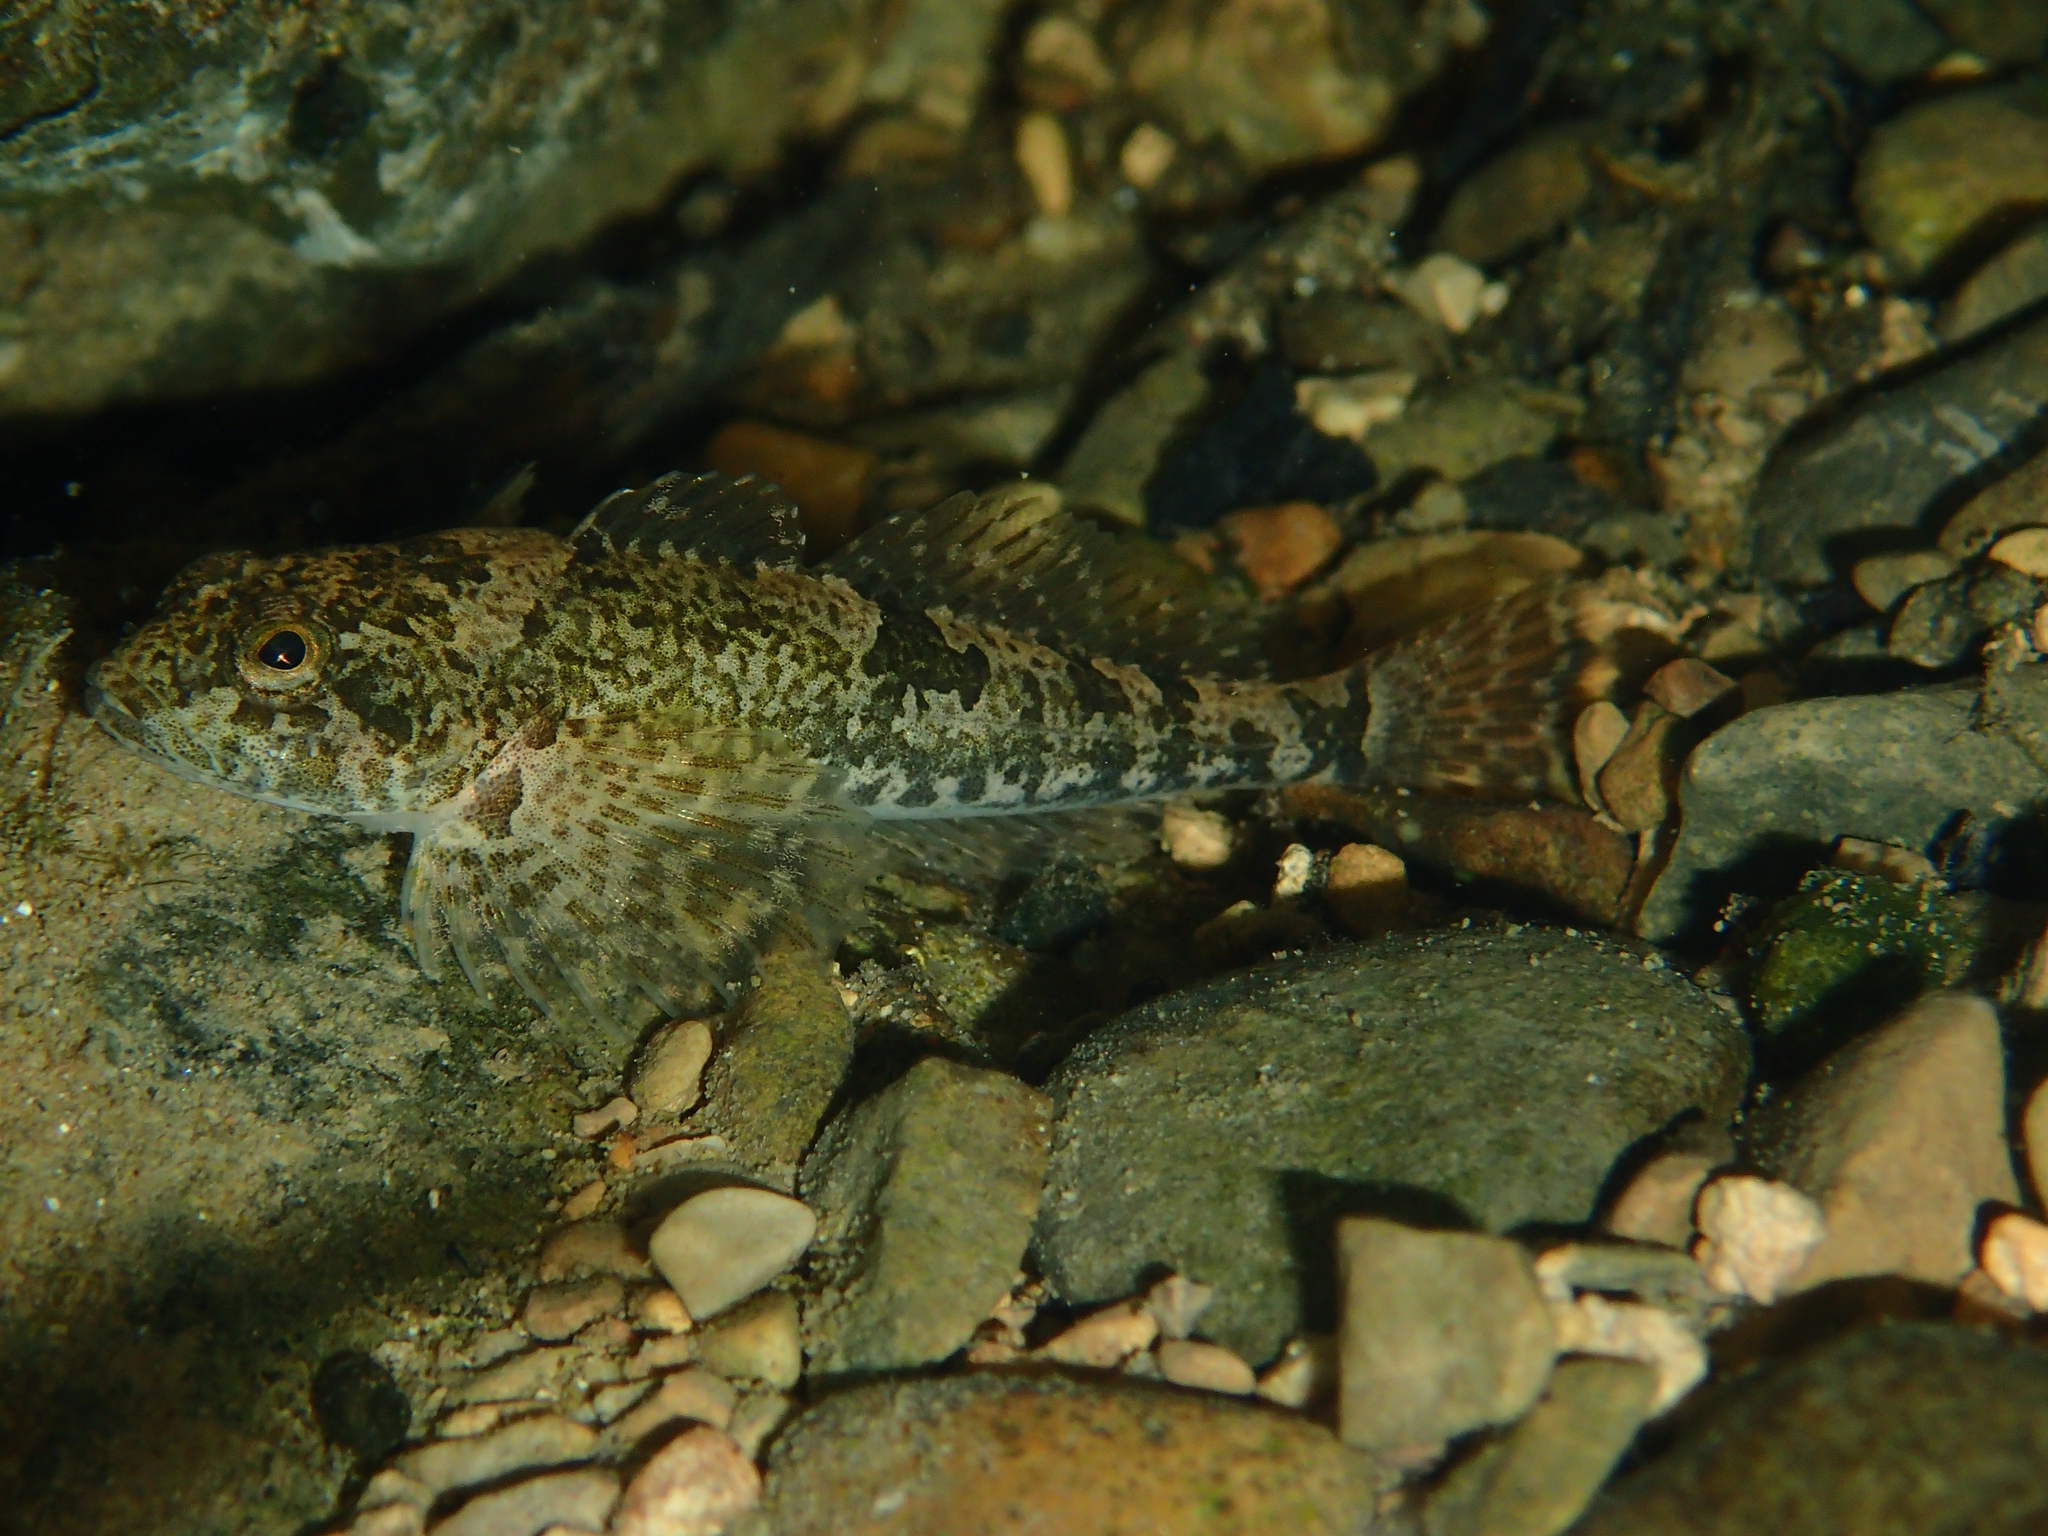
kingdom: Animalia
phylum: Chordata
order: Scorpaeniformes
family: Cottidae
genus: Cottus
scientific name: Cottus gobio
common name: Bullhead
